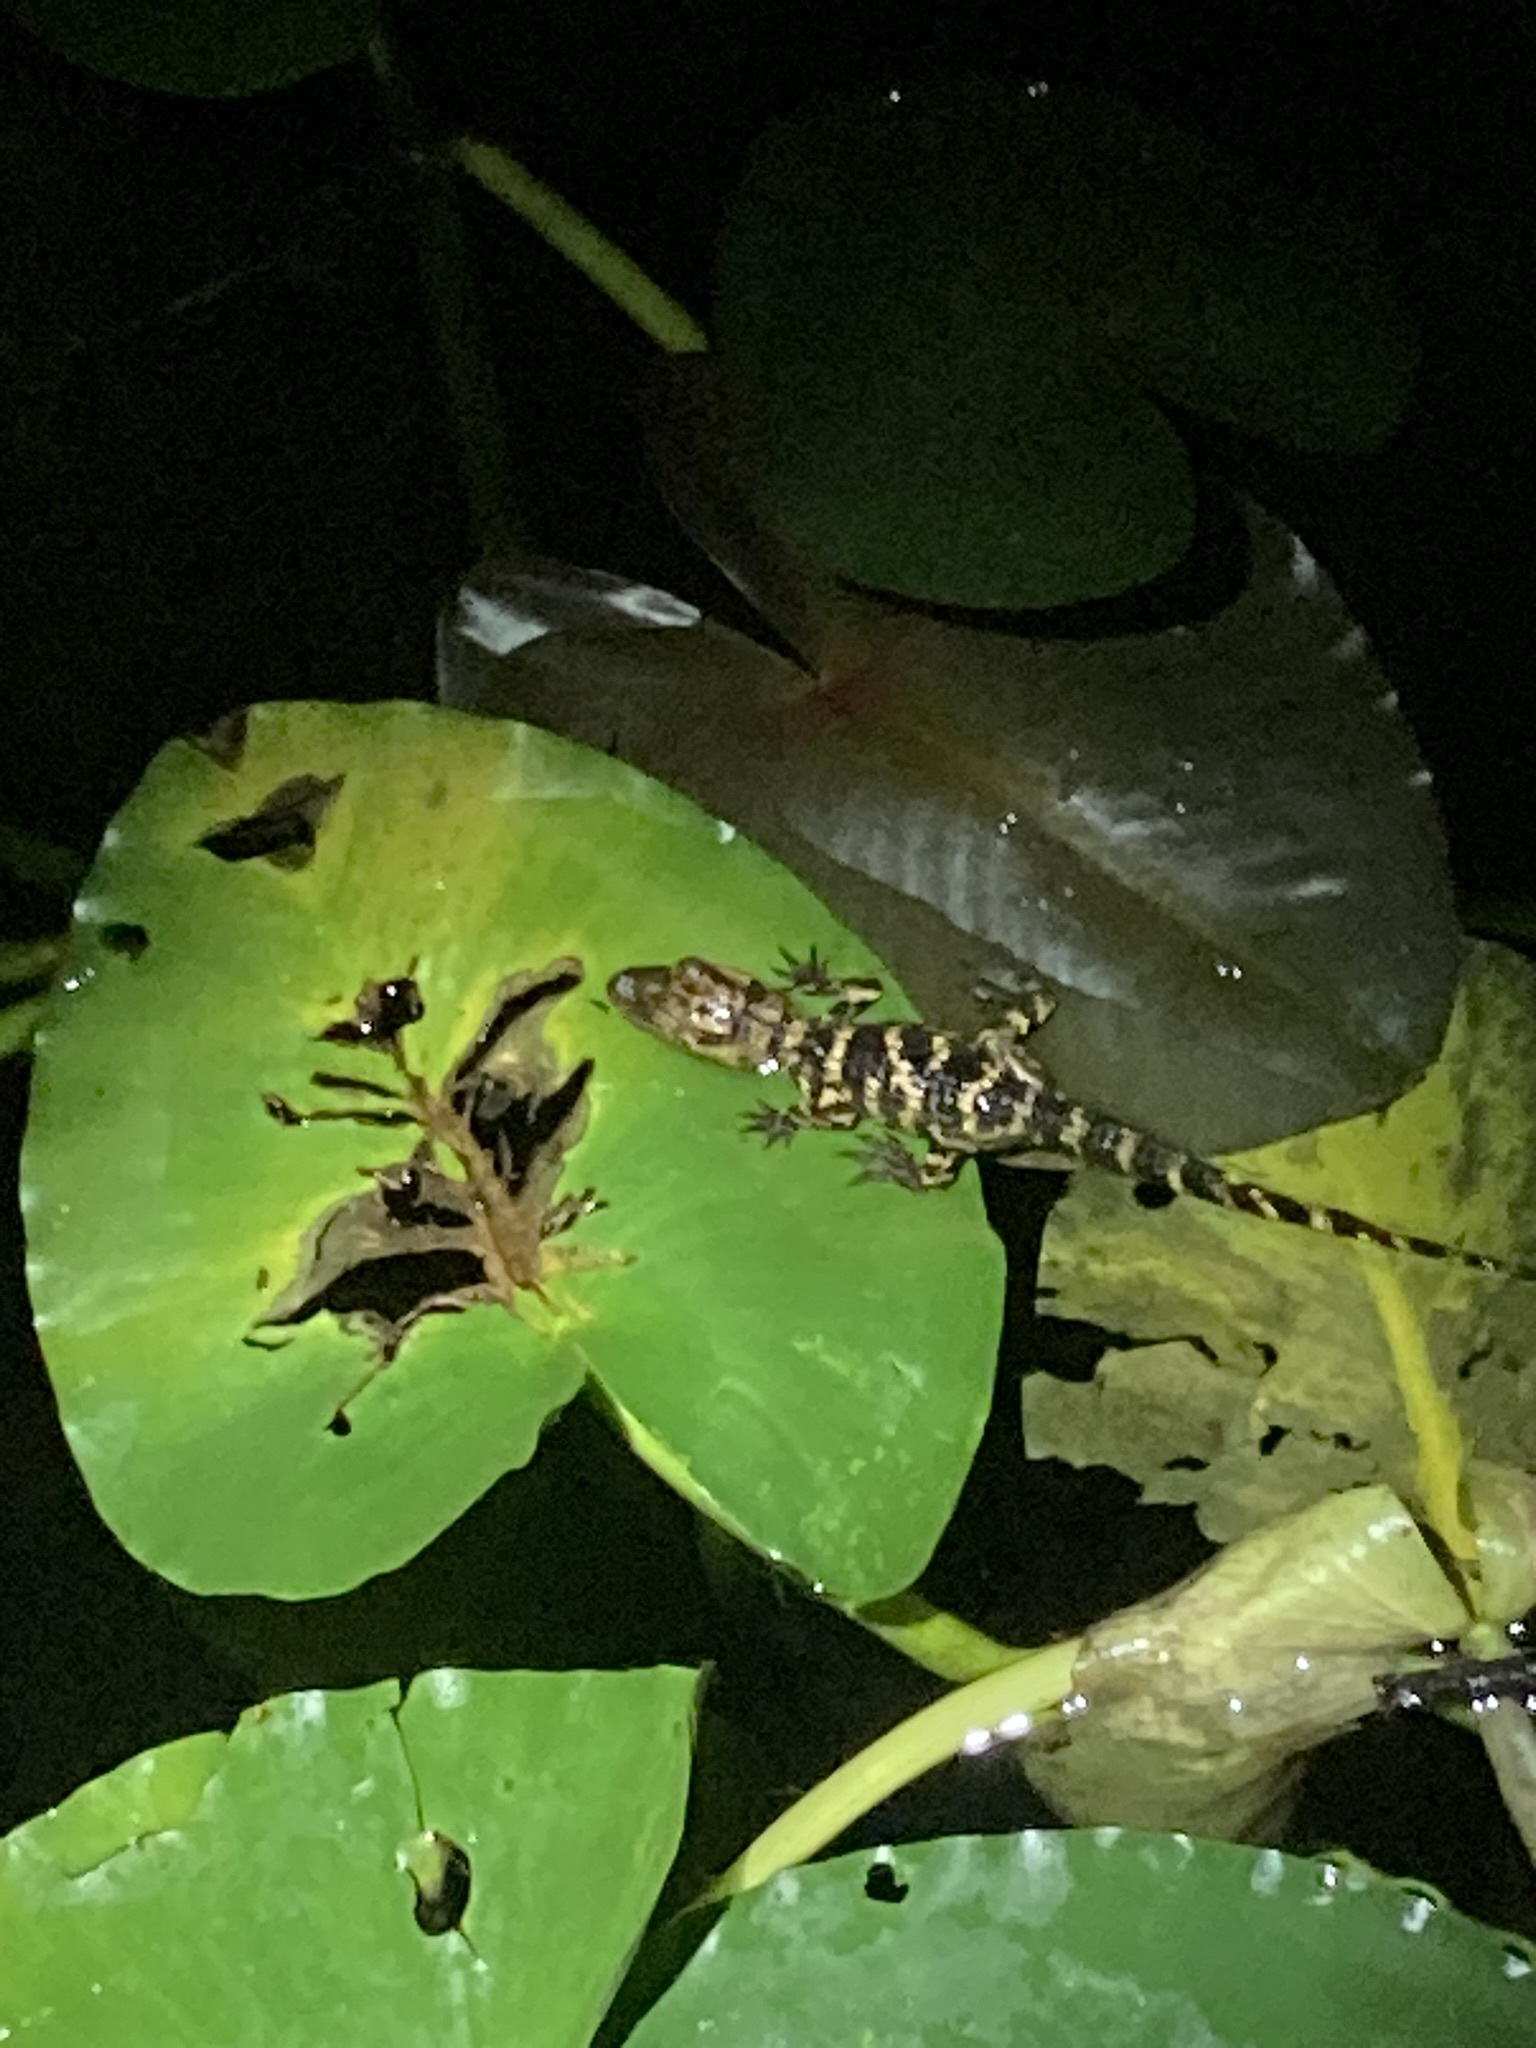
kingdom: Animalia
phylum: Chordata
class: Crocodylia
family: Alligatoridae
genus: Alligator
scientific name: Alligator mississippiensis
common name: American alligator
